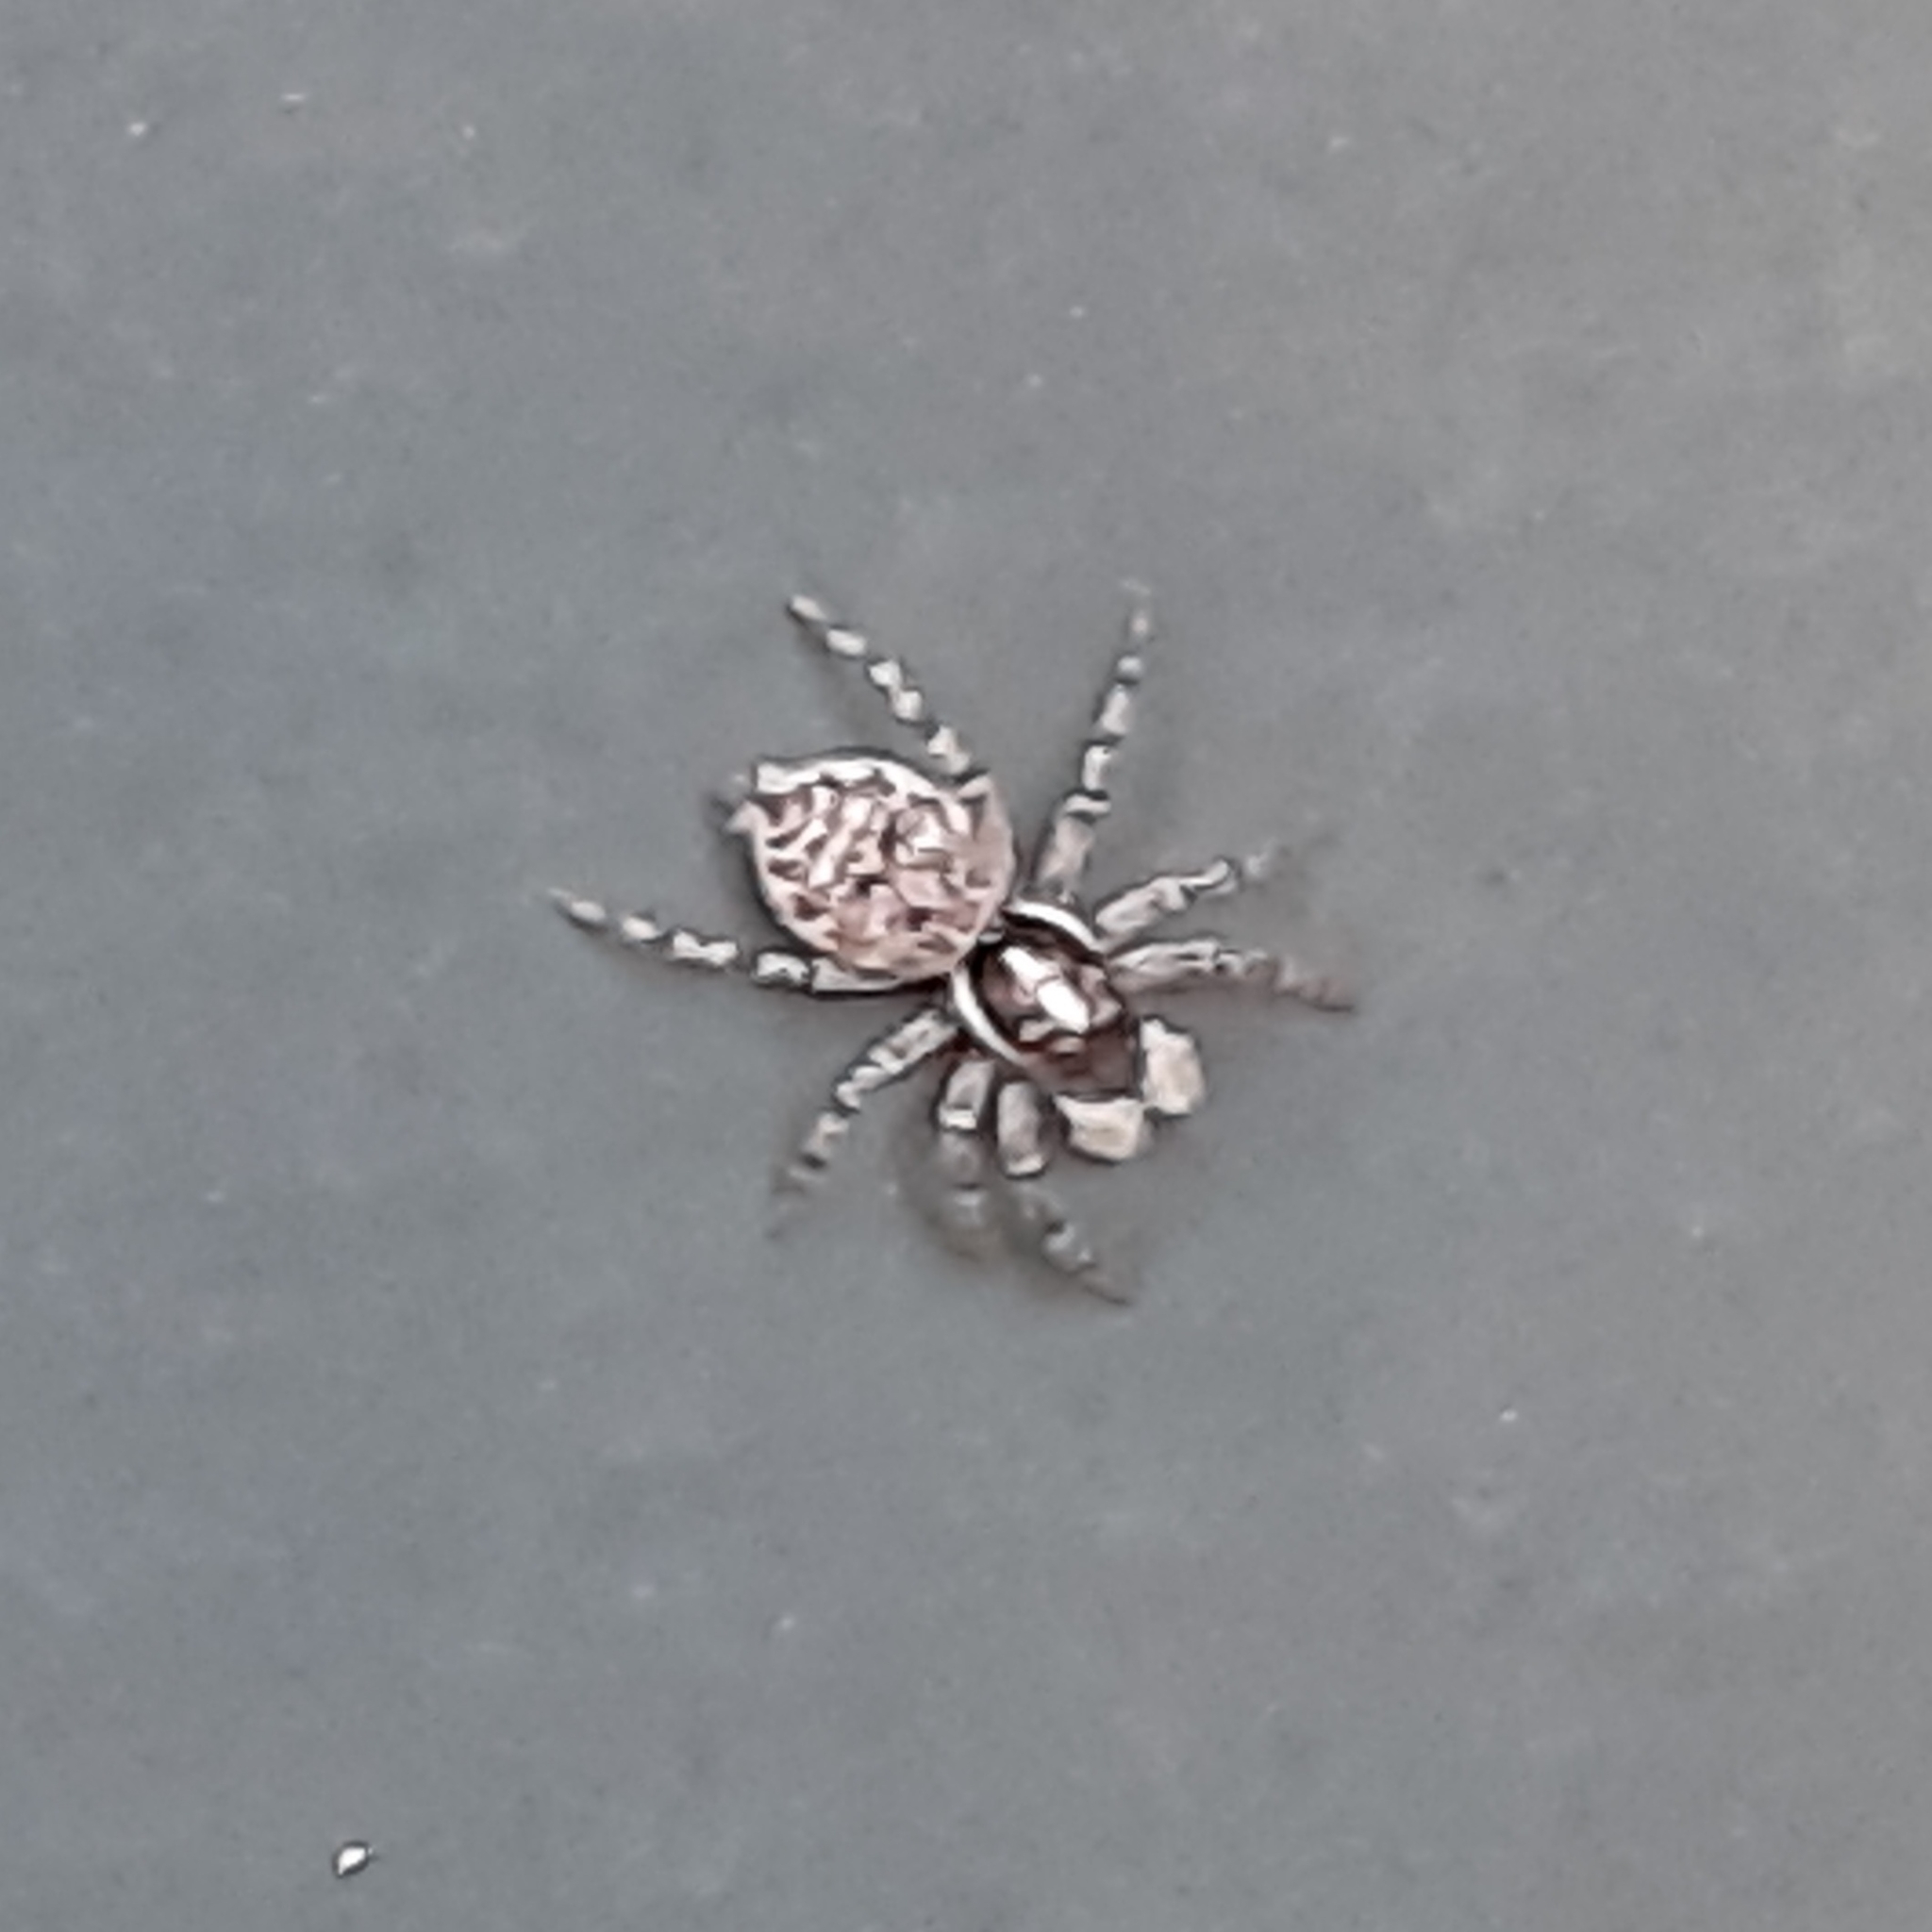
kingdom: Animalia
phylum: Arthropoda
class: Arachnida
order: Araneae
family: Salticidae
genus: Menemerus
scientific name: Menemerus semilimbatus
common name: Jumping spider
